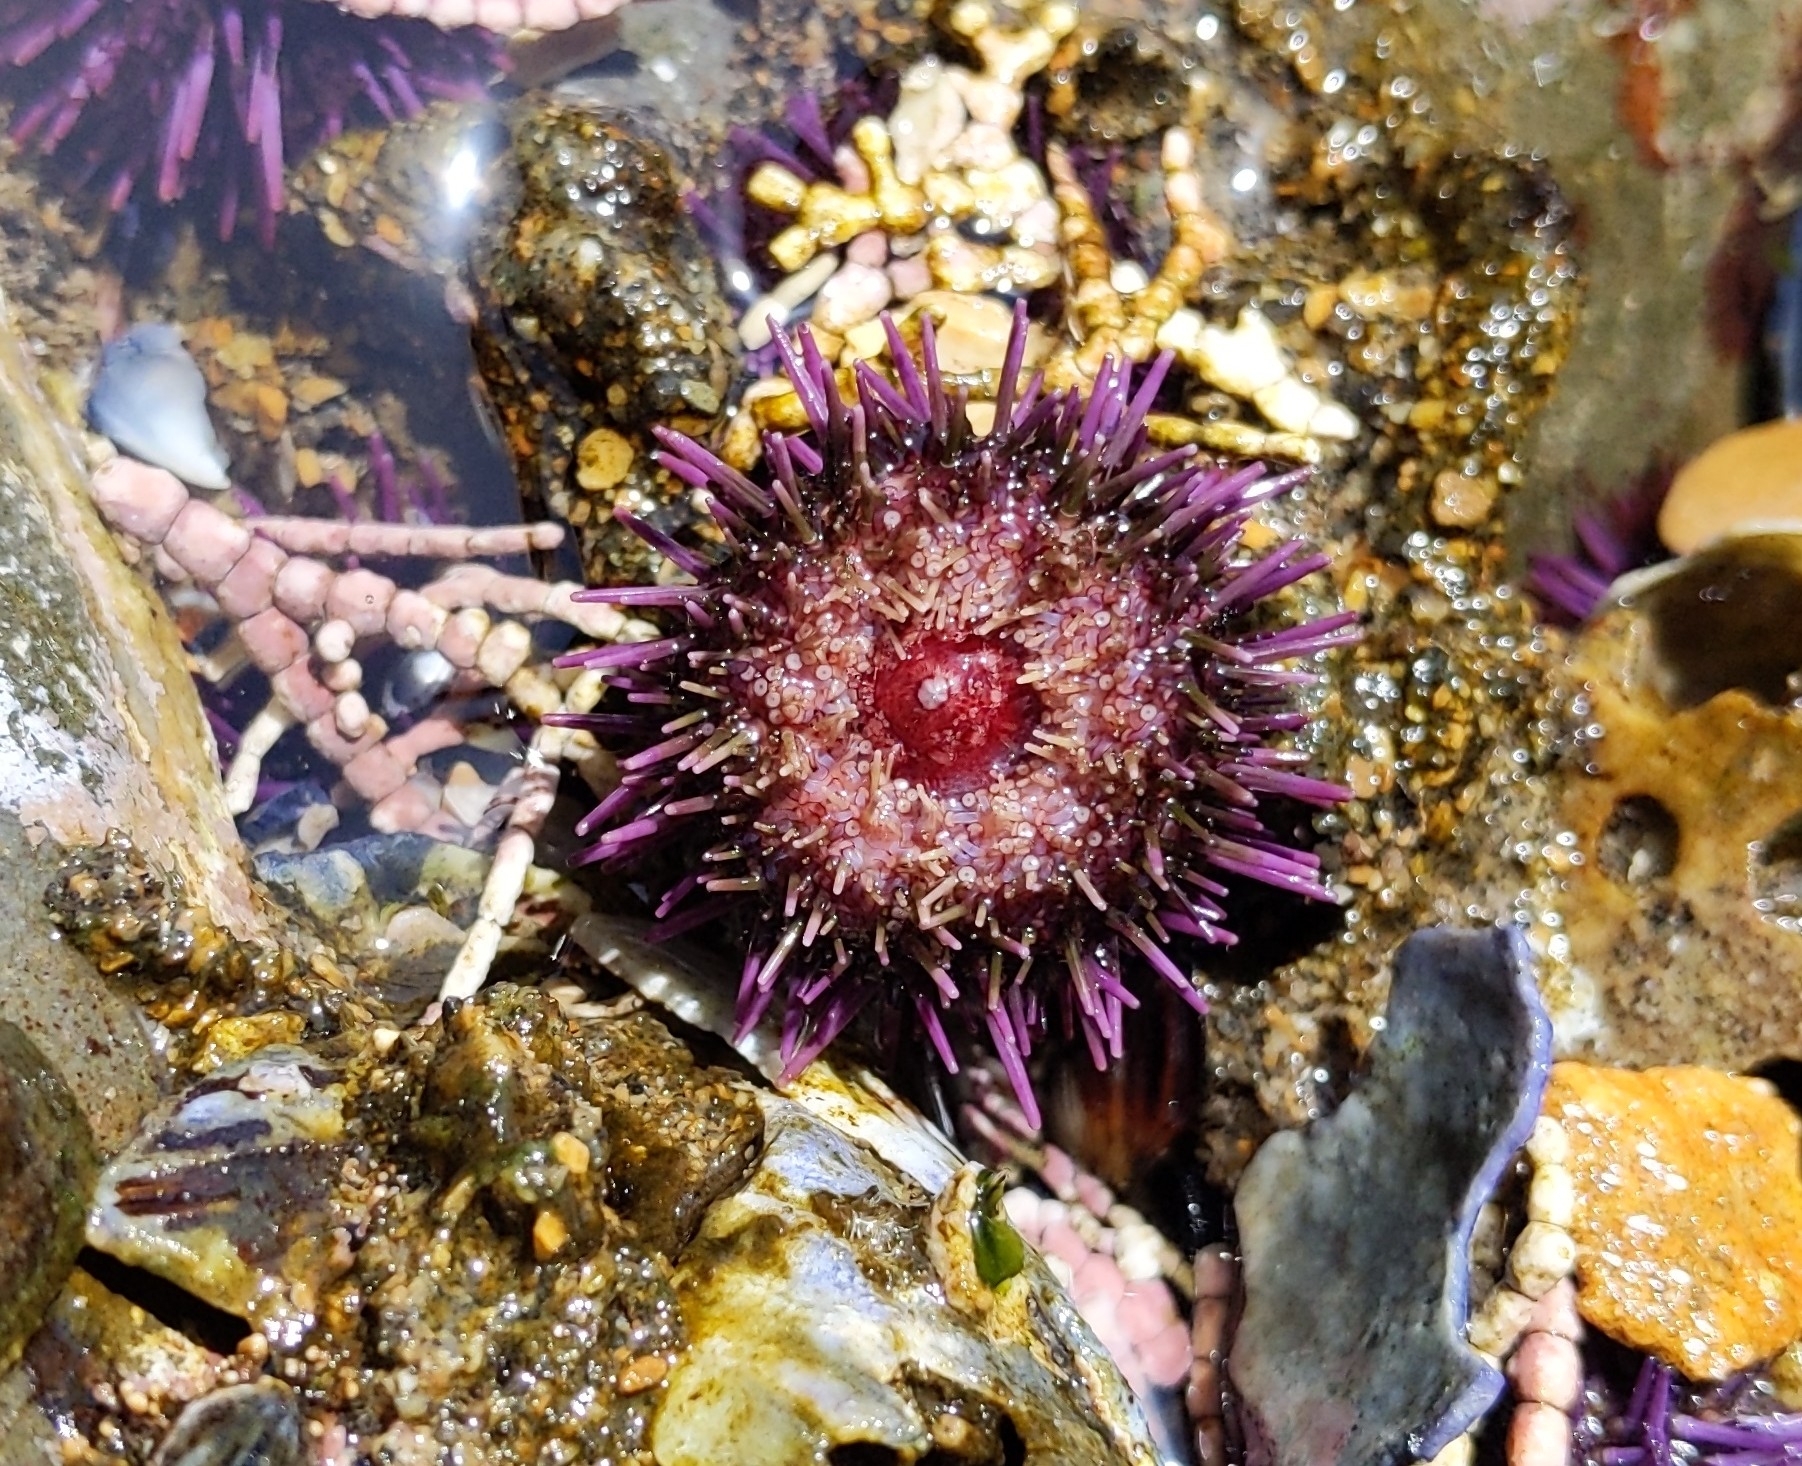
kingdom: Animalia
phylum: Echinodermata
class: Echinoidea
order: Camarodonta
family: Strongylocentrotidae
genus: Strongylocentrotus
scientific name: Strongylocentrotus purpuratus
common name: Purple sea urchin
